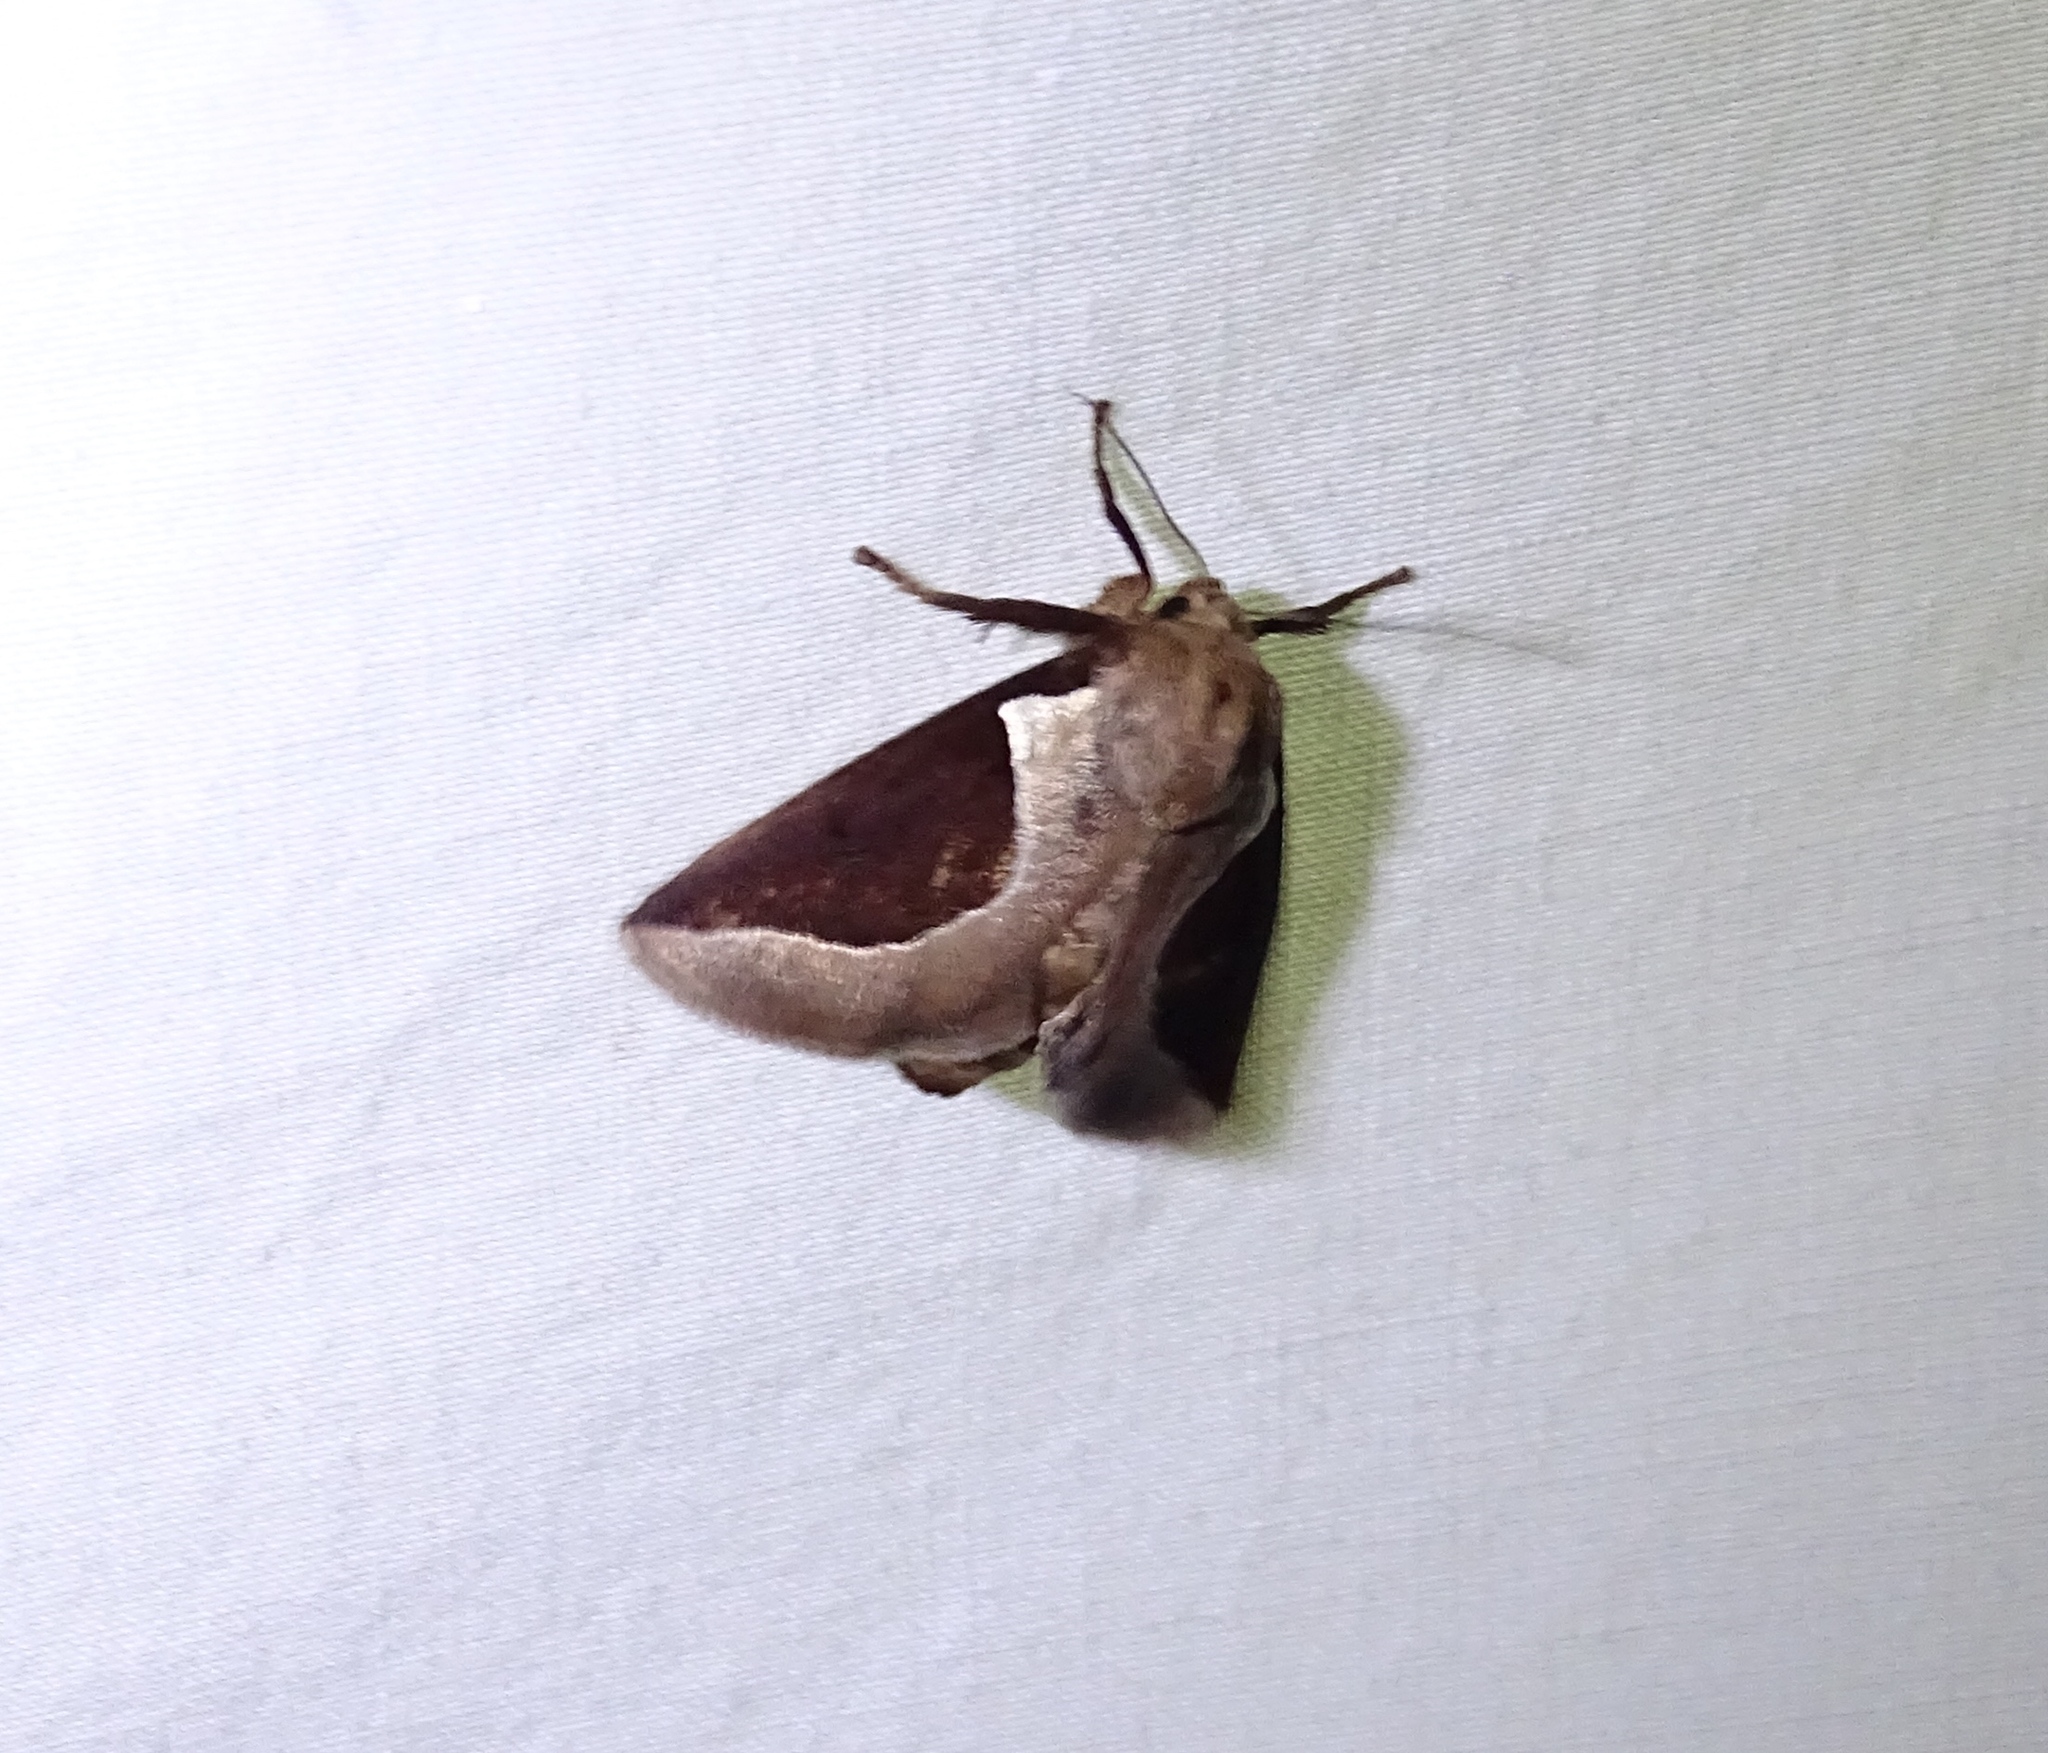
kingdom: Animalia
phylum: Arthropoda
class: Insecta
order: Lepidoptera
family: Limacodidae
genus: Prolimacodes
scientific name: Prolimacodes badia
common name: Skiff moth
